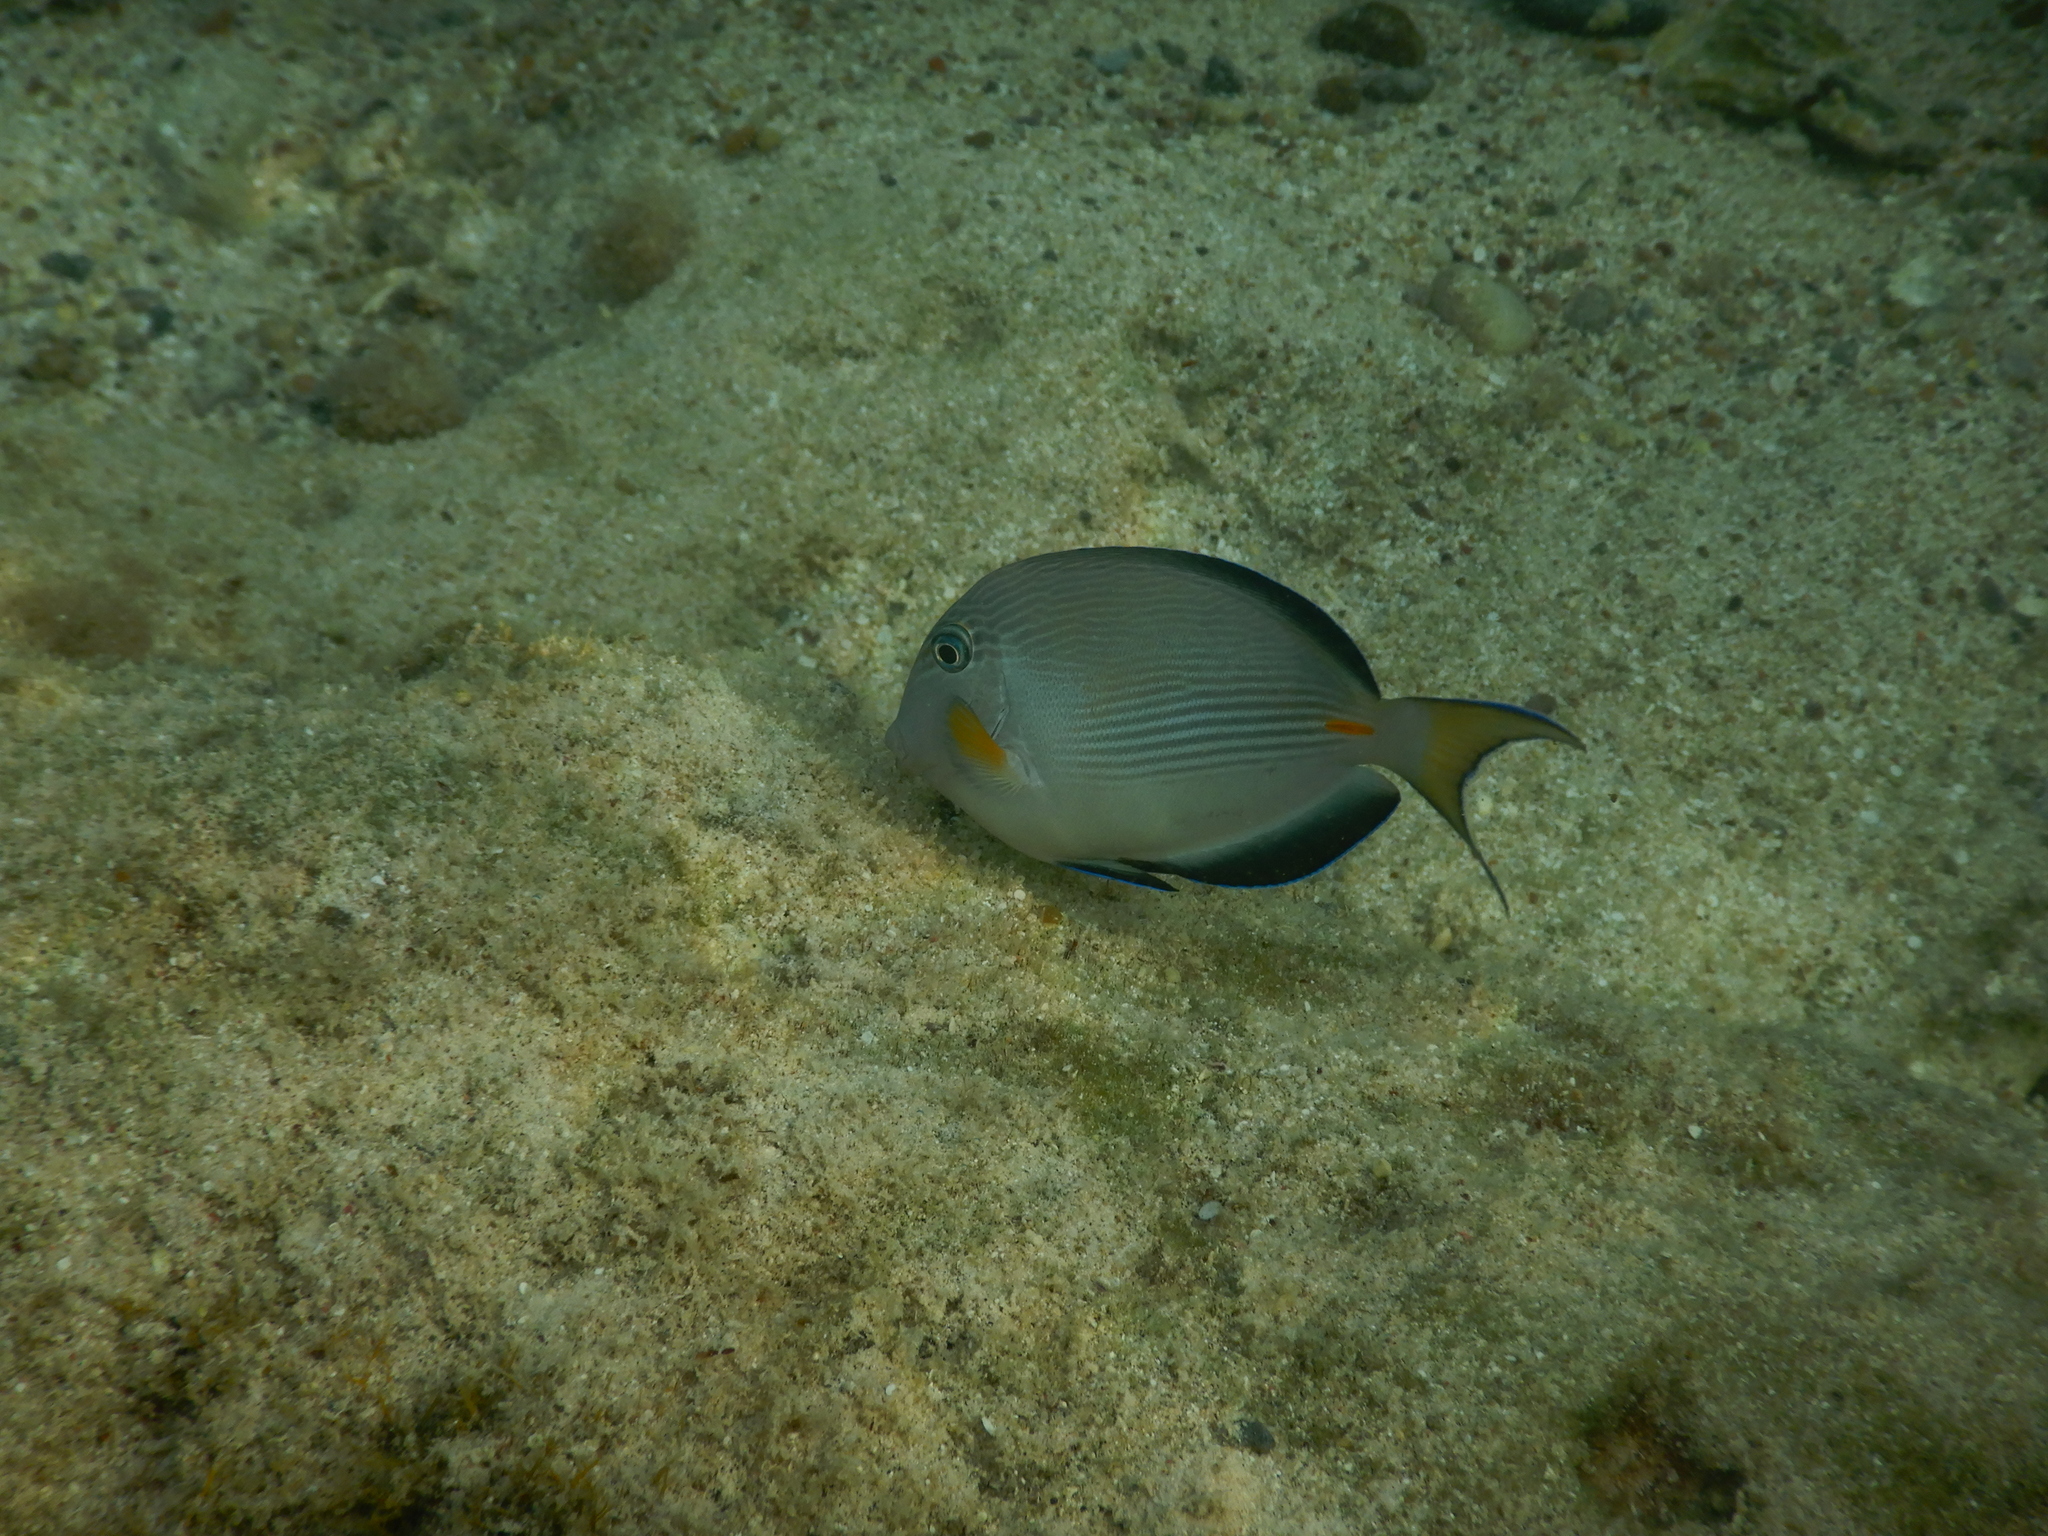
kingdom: Animalia
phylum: Chordata
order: Perciformes
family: Acanthuridae
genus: Acanthurus
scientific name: Acanthurus sohal
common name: Red sea surgeonfish
